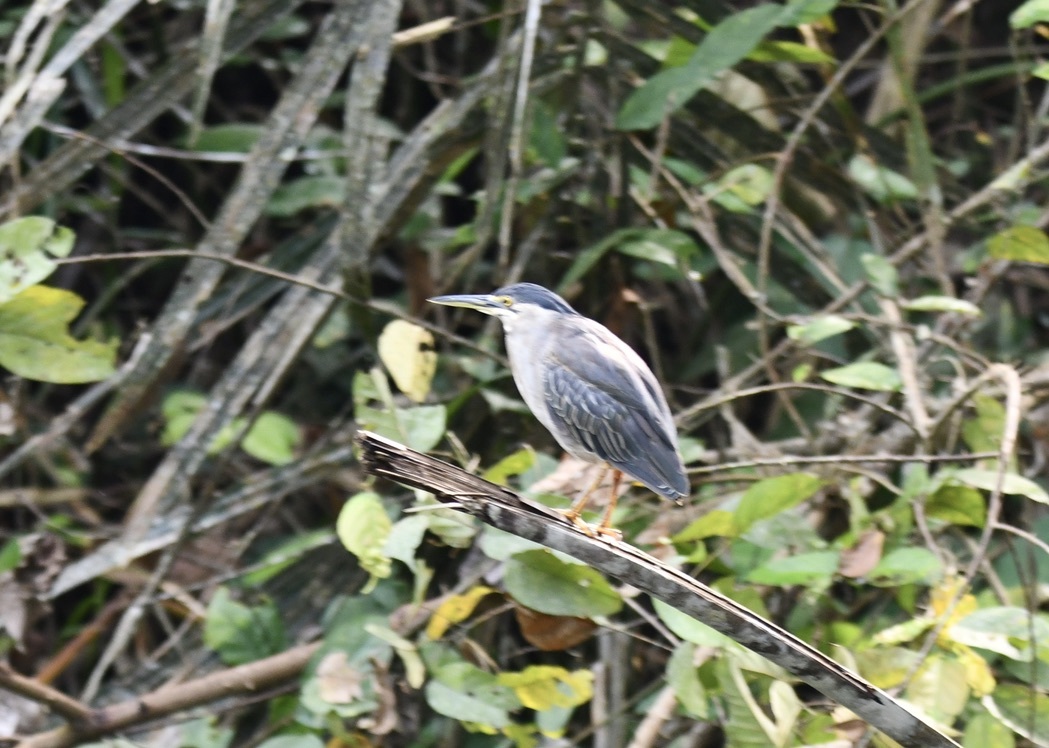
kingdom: Animalia
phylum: Chordata
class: Aves
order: Pelecaniformes
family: Ardeidae
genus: Butorides
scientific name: Butorides striata
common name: Striated heron
